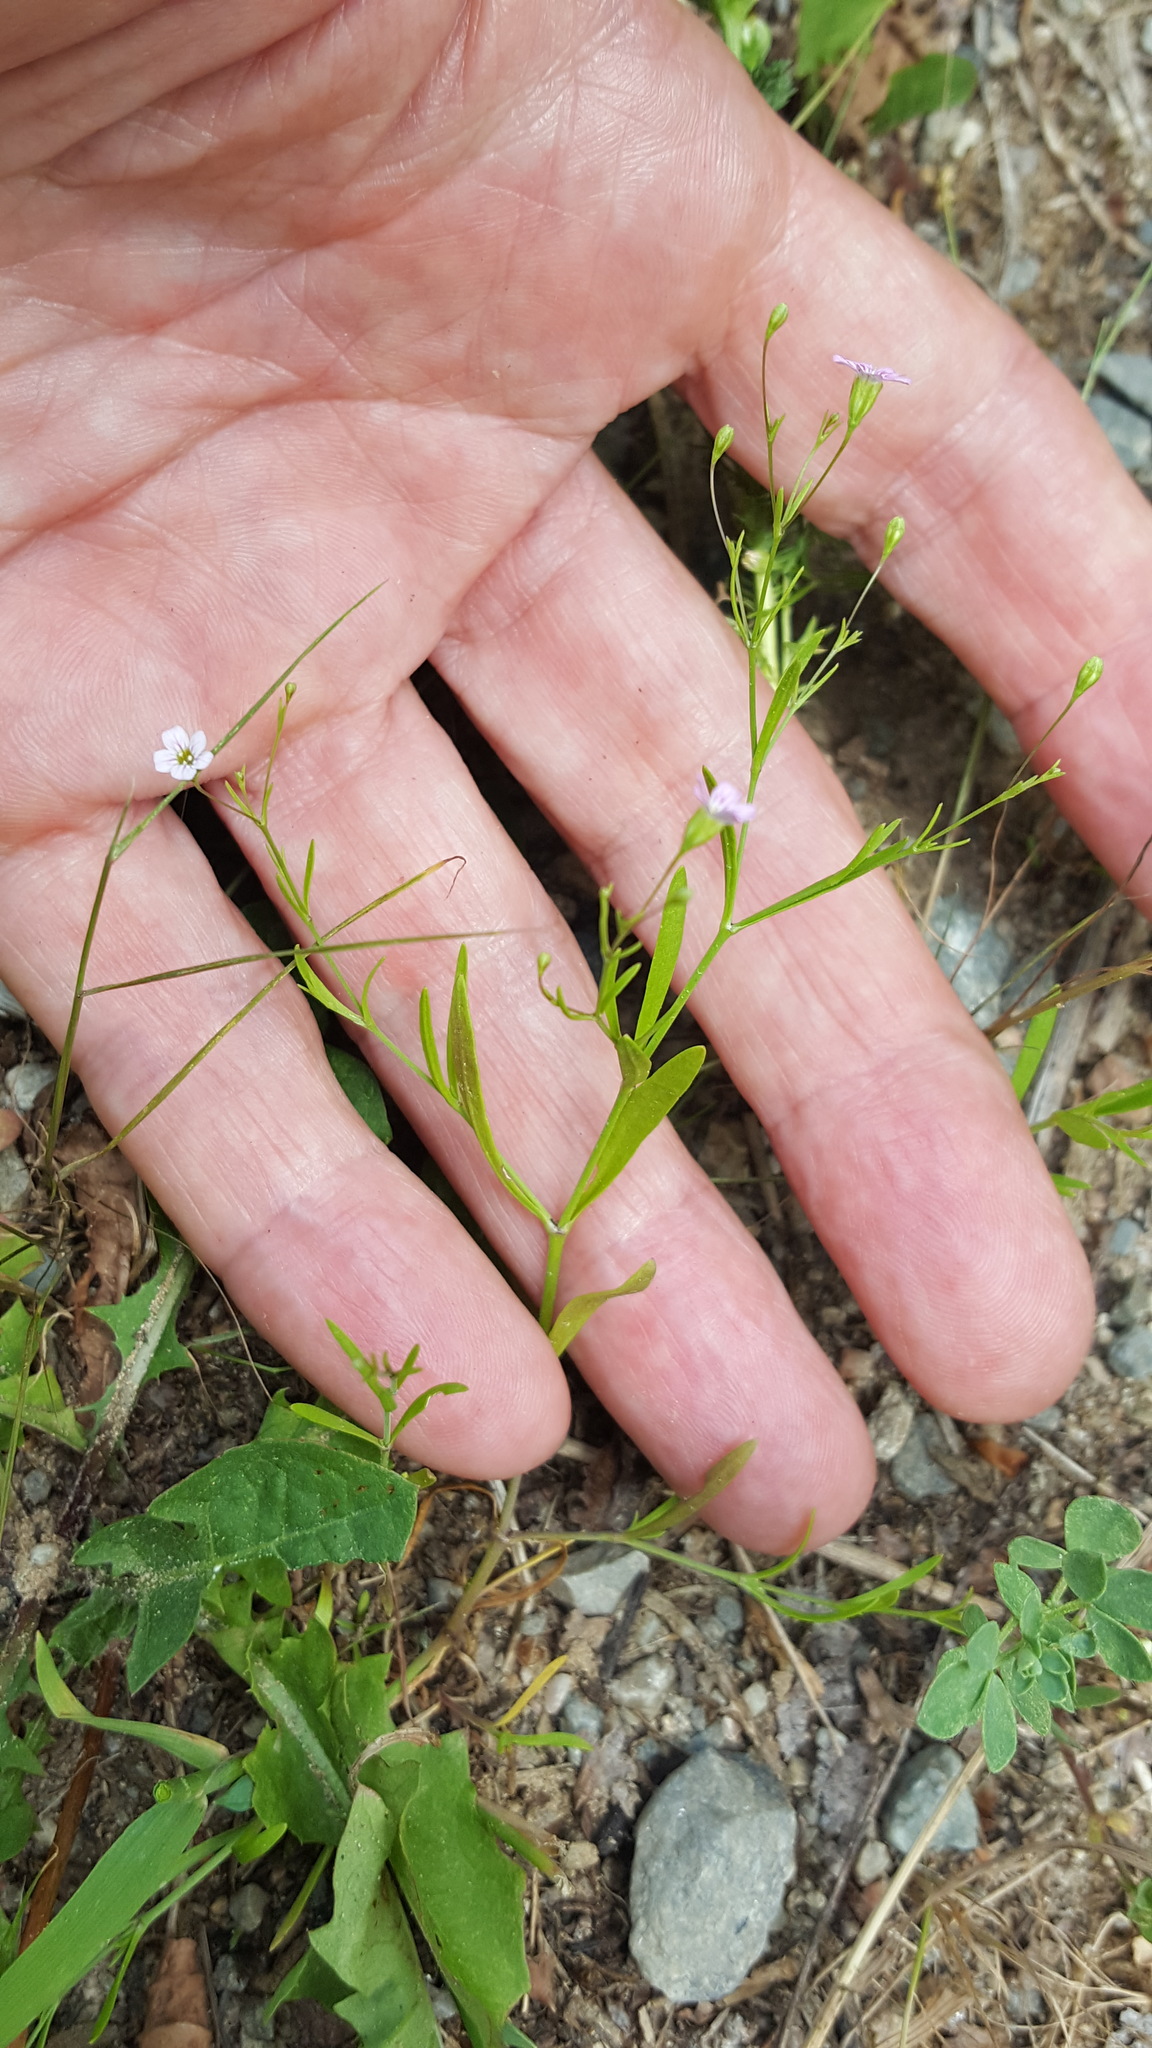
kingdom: Plantae
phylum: Tracheophyta
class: Magnoliopsida
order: Caryophyllales
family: Caryophyllaceae
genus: Psammophiliella
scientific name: Psammophiliella muralis
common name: Cushion baby's-breath
